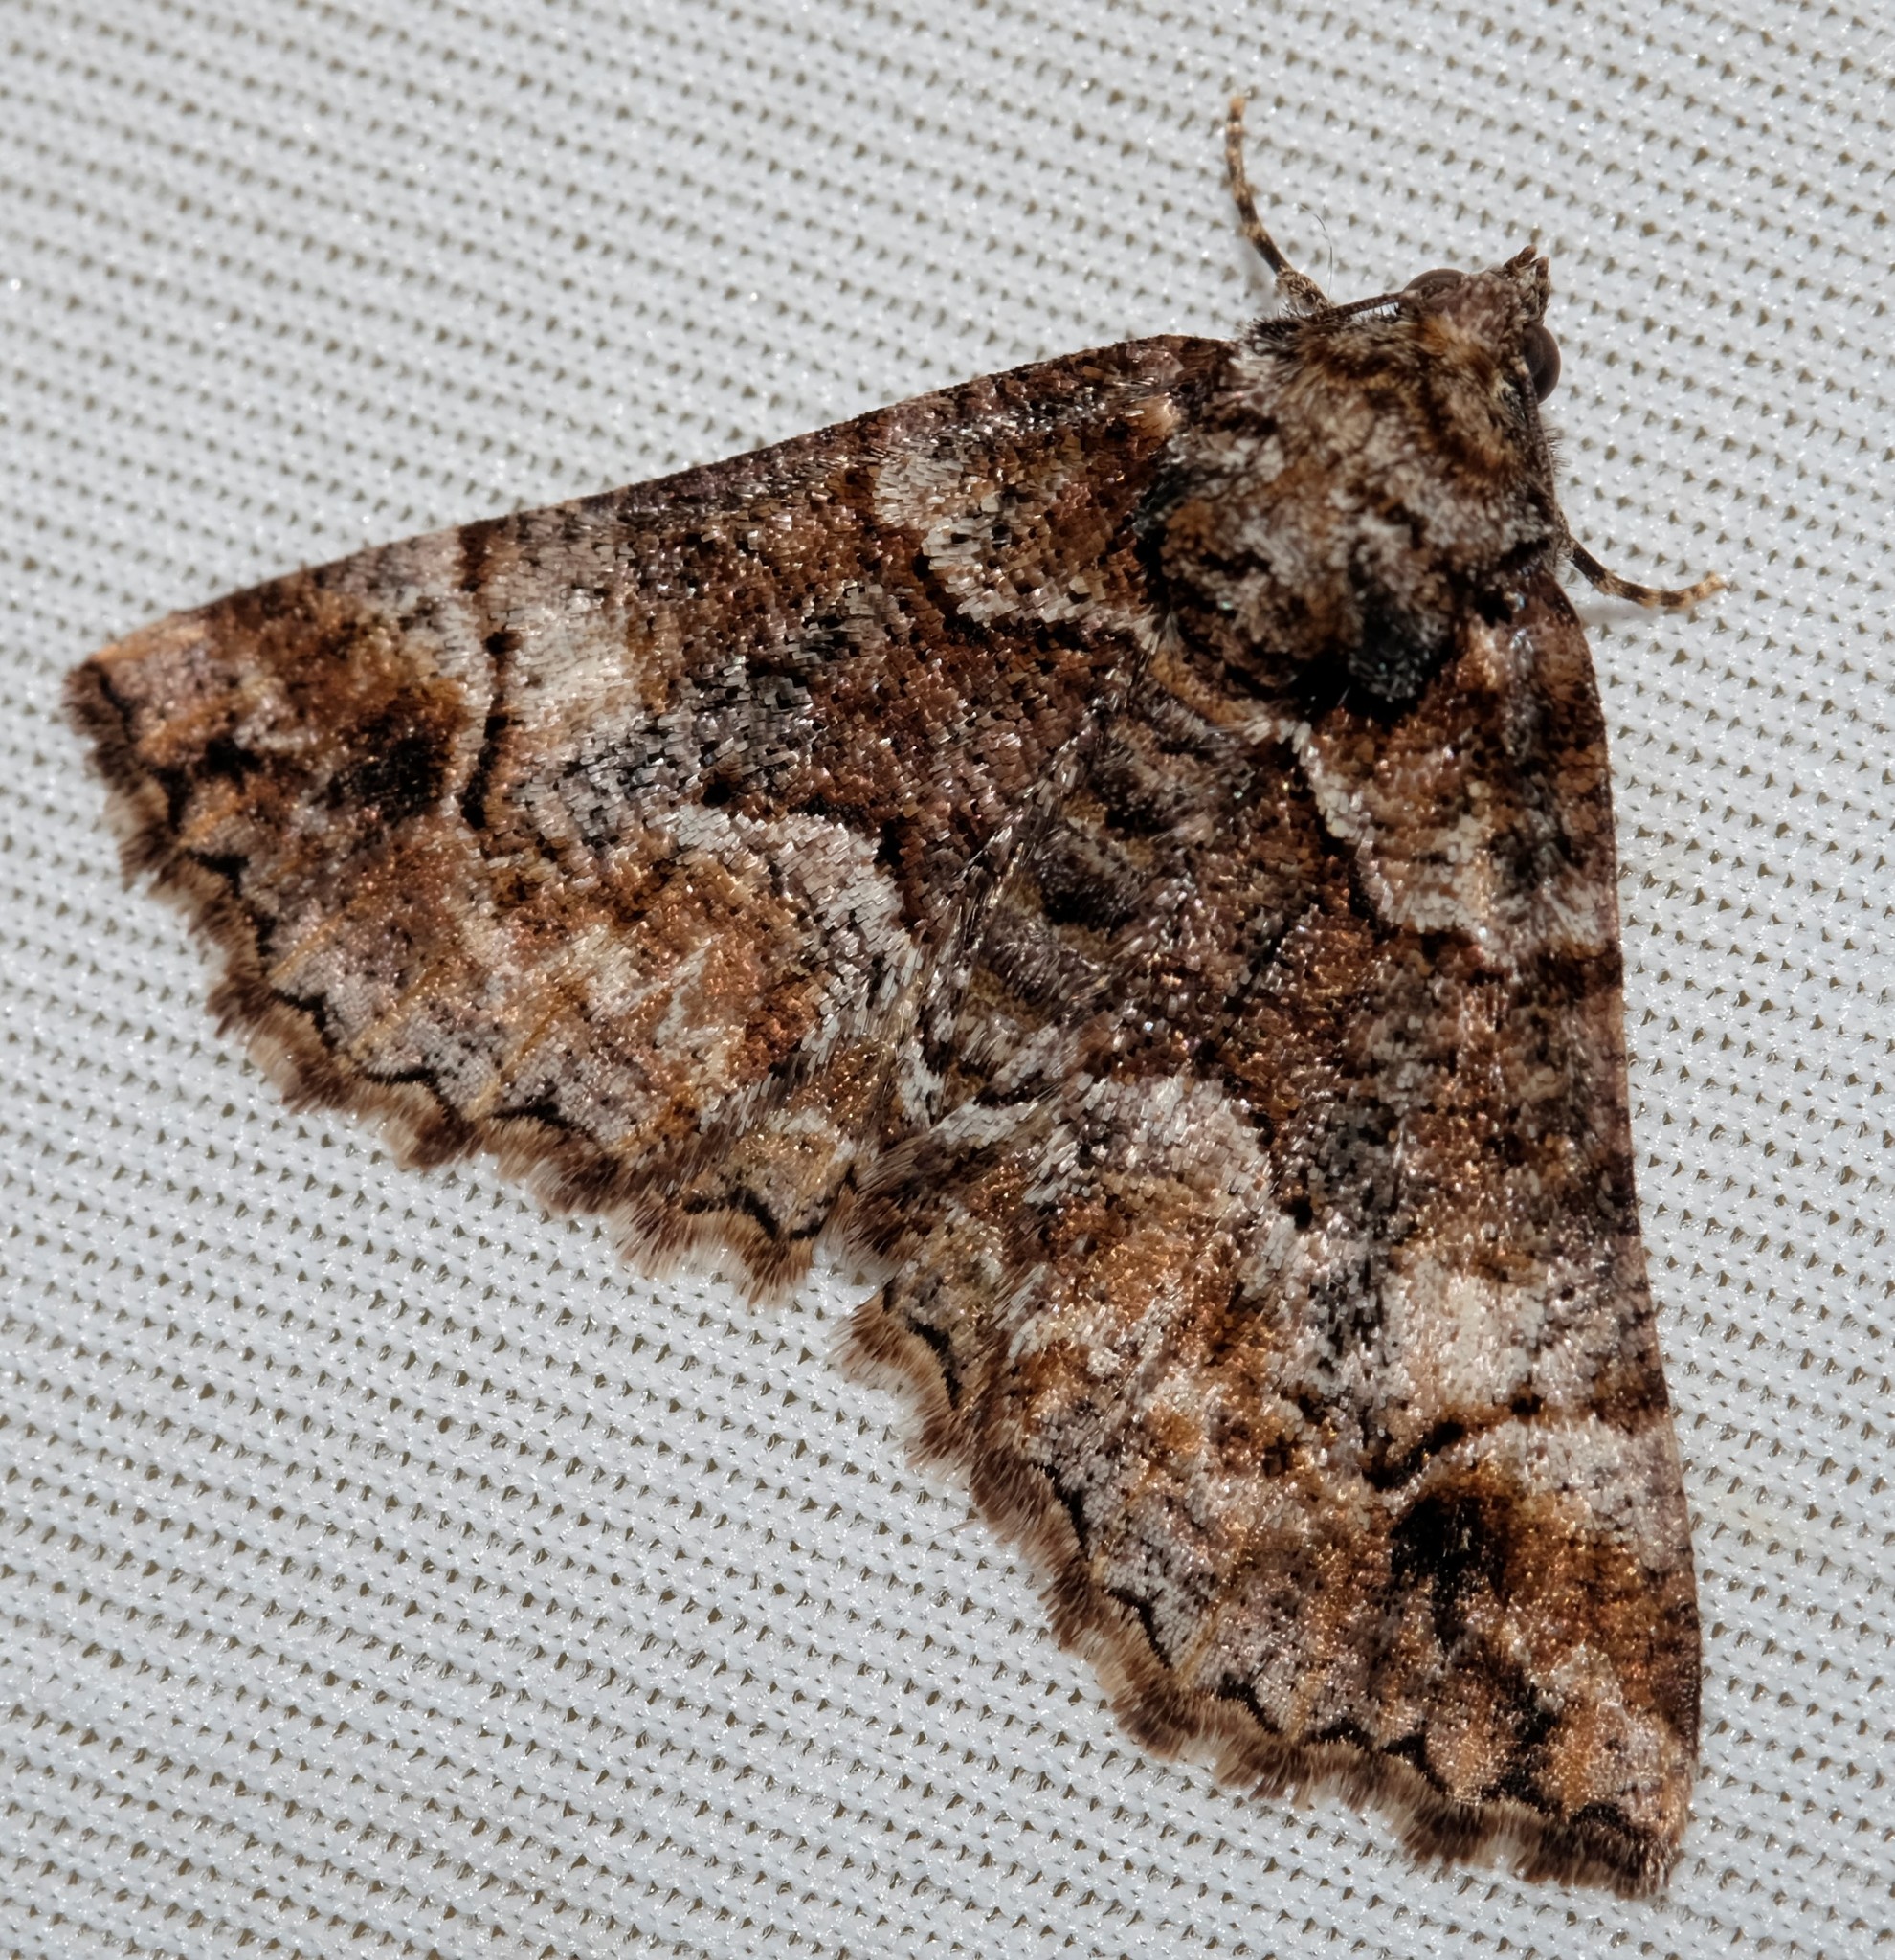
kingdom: Animalia
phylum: Arthropoda
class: Insecta
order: Lepidoptera
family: Geometridae
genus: Gastrina
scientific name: Gastrina cristaria
